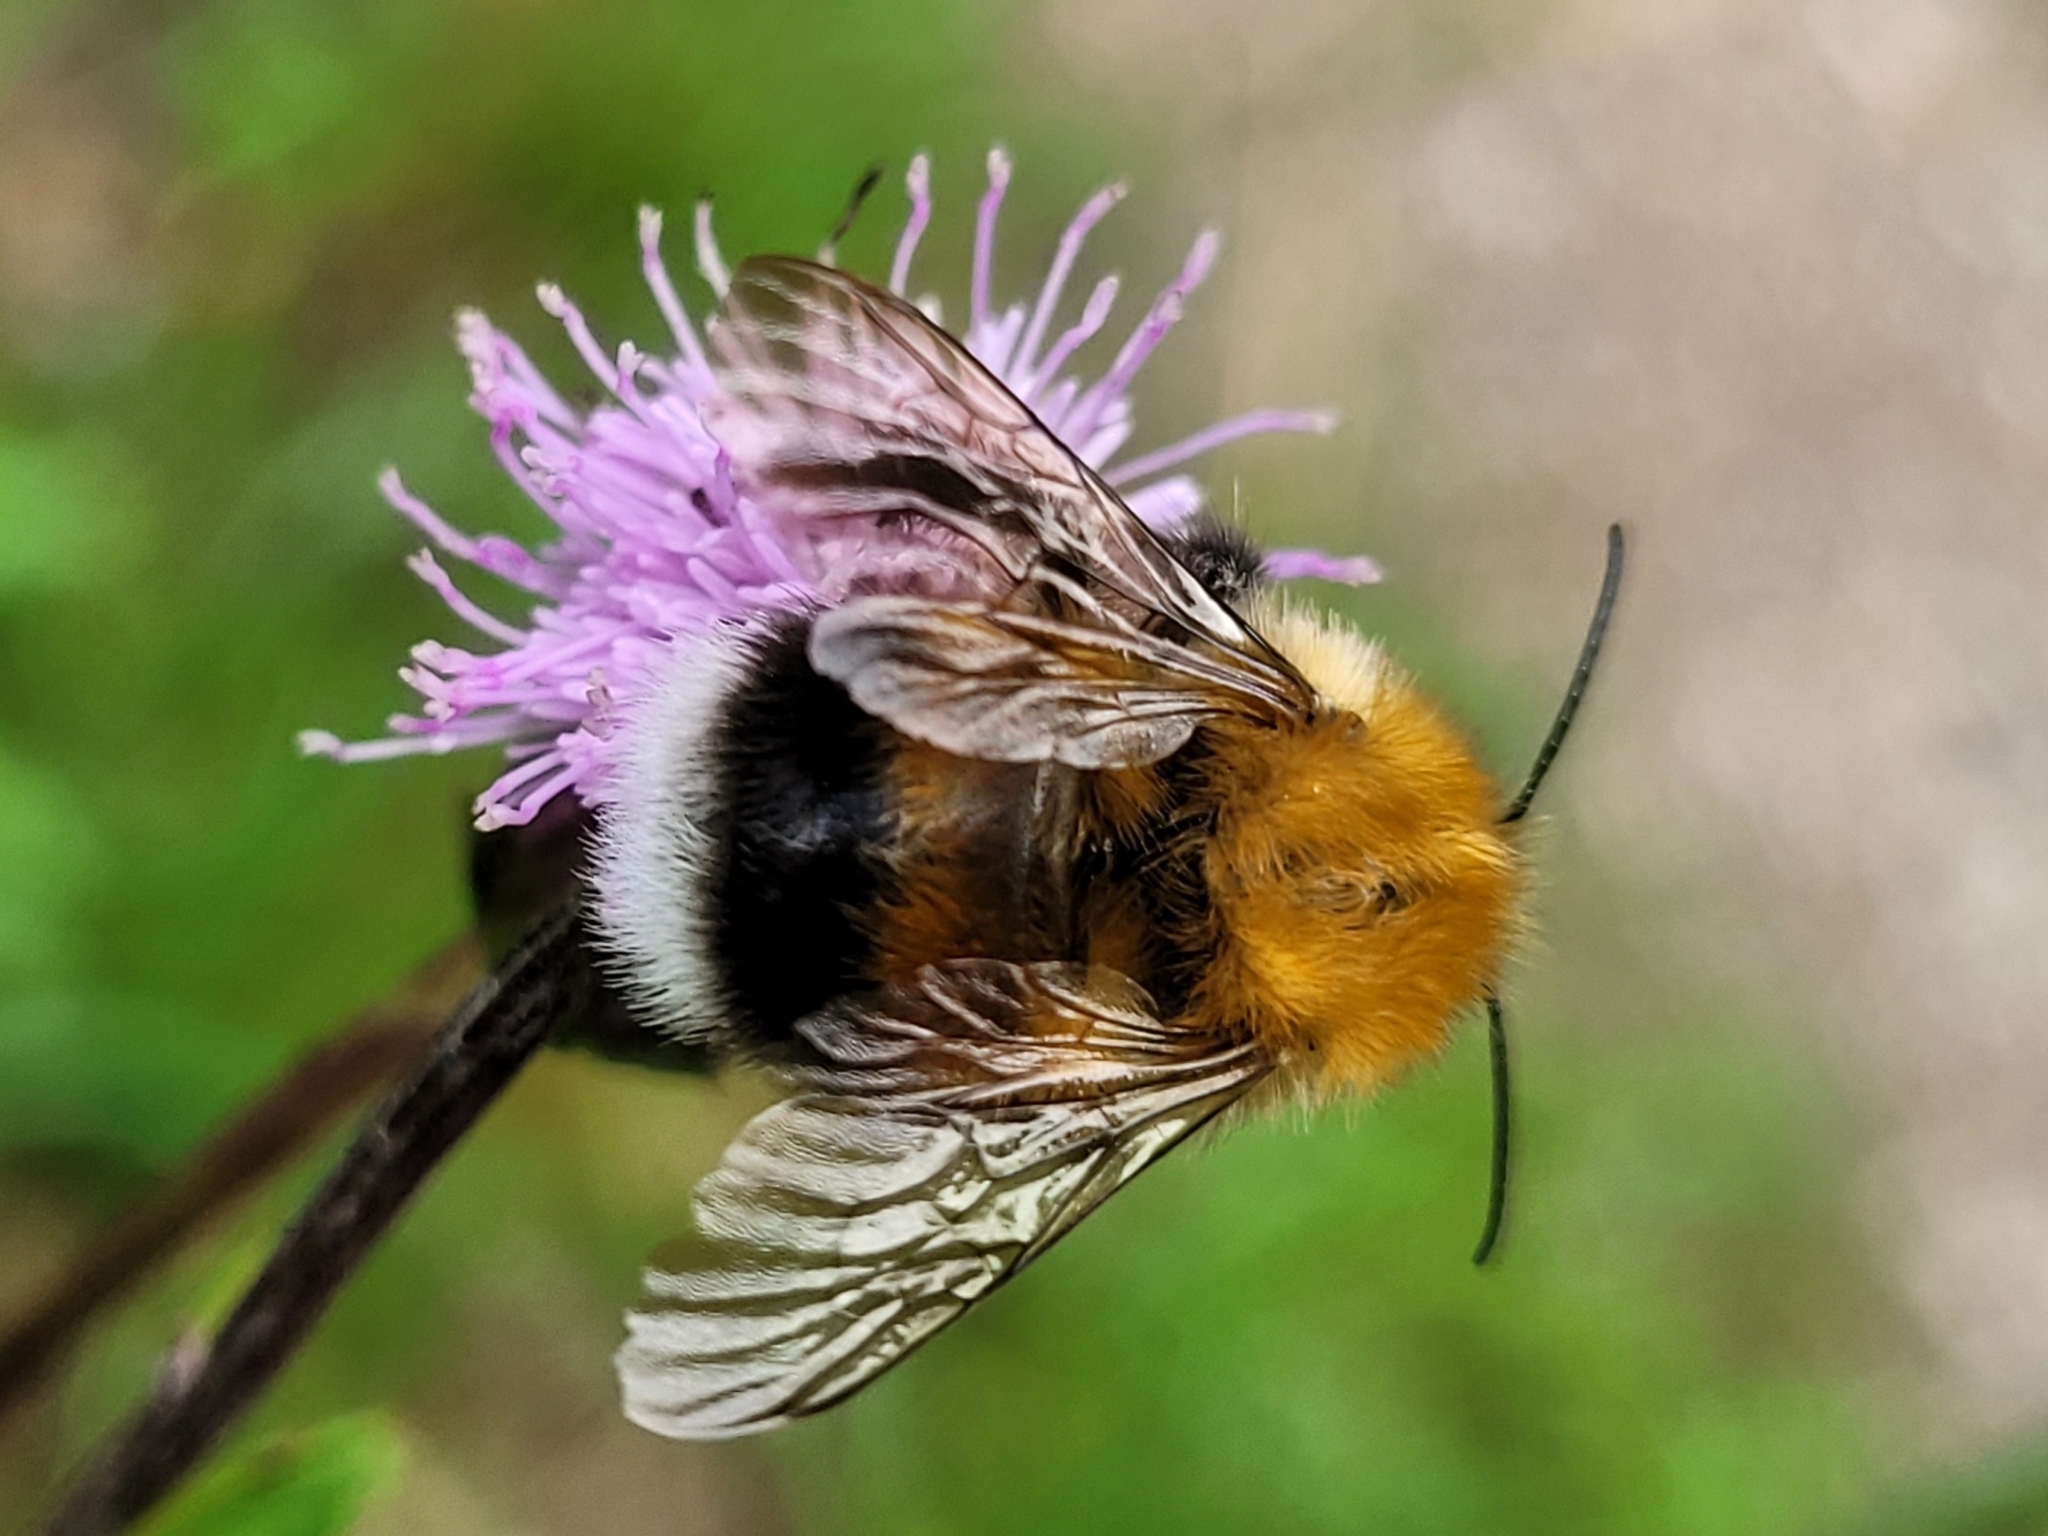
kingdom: Animalia
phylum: Arthropoda
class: Insecta
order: Hymenoptera
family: Apidae
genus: Bombus
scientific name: Bombus hypnorum
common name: New garden bumblebee
